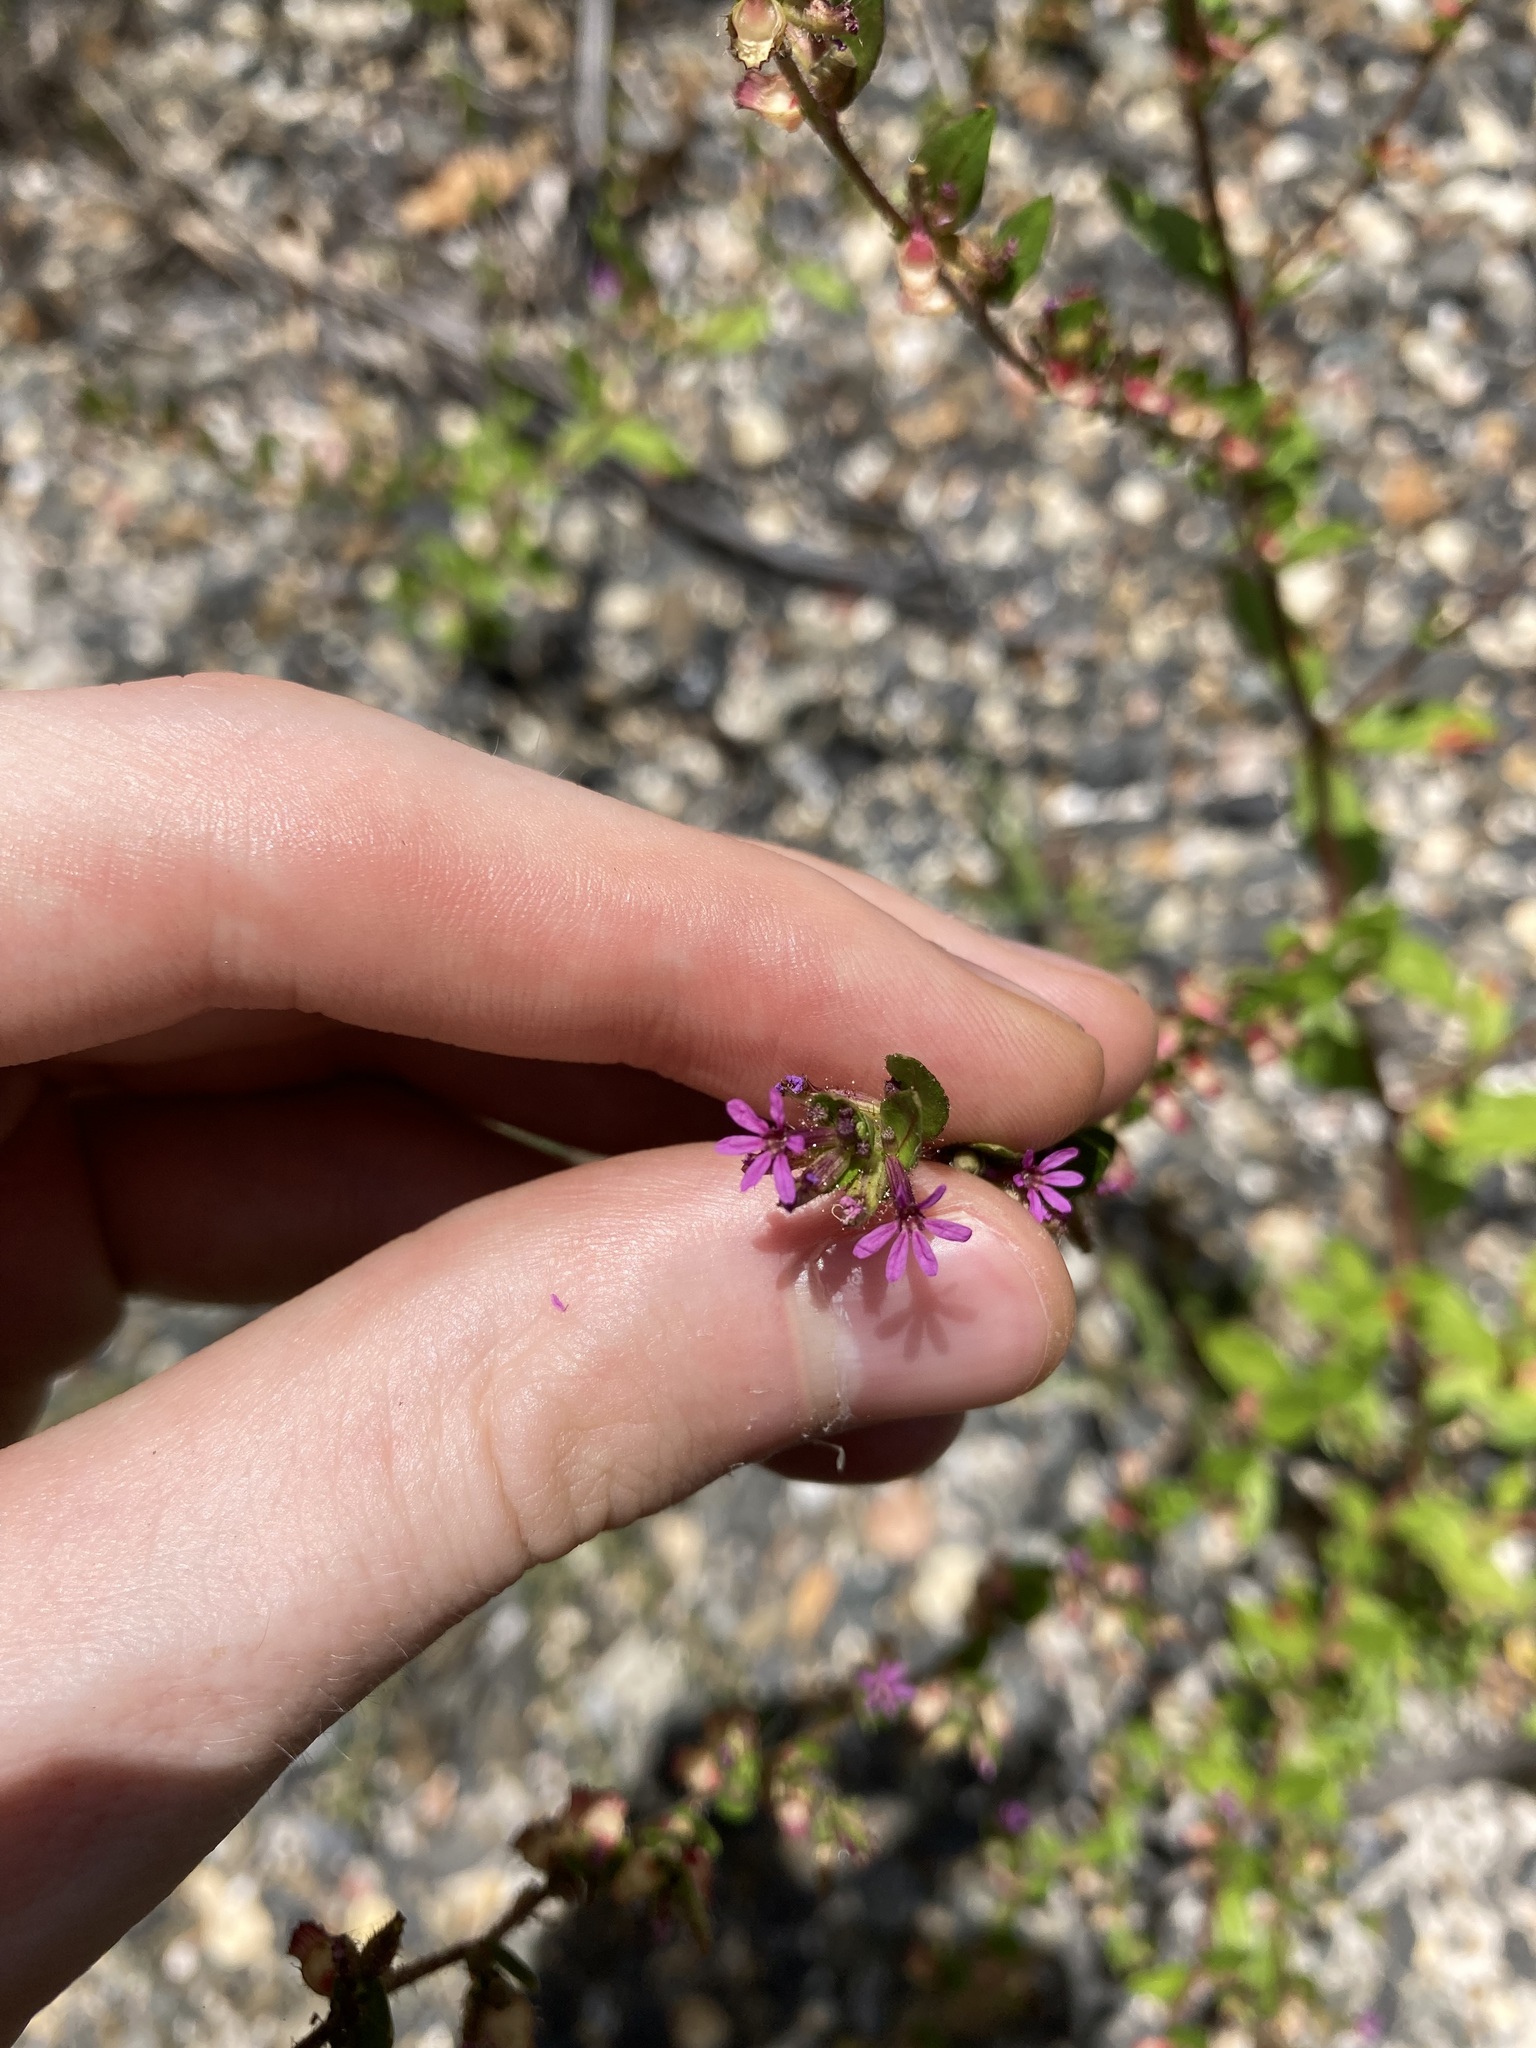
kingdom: Plantae
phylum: Tracheophyta
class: Magnoliopsida
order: Myrtales
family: Lythraceae
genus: Cuphea
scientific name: Cuphea carthagenensis
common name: Colombian waxweed
